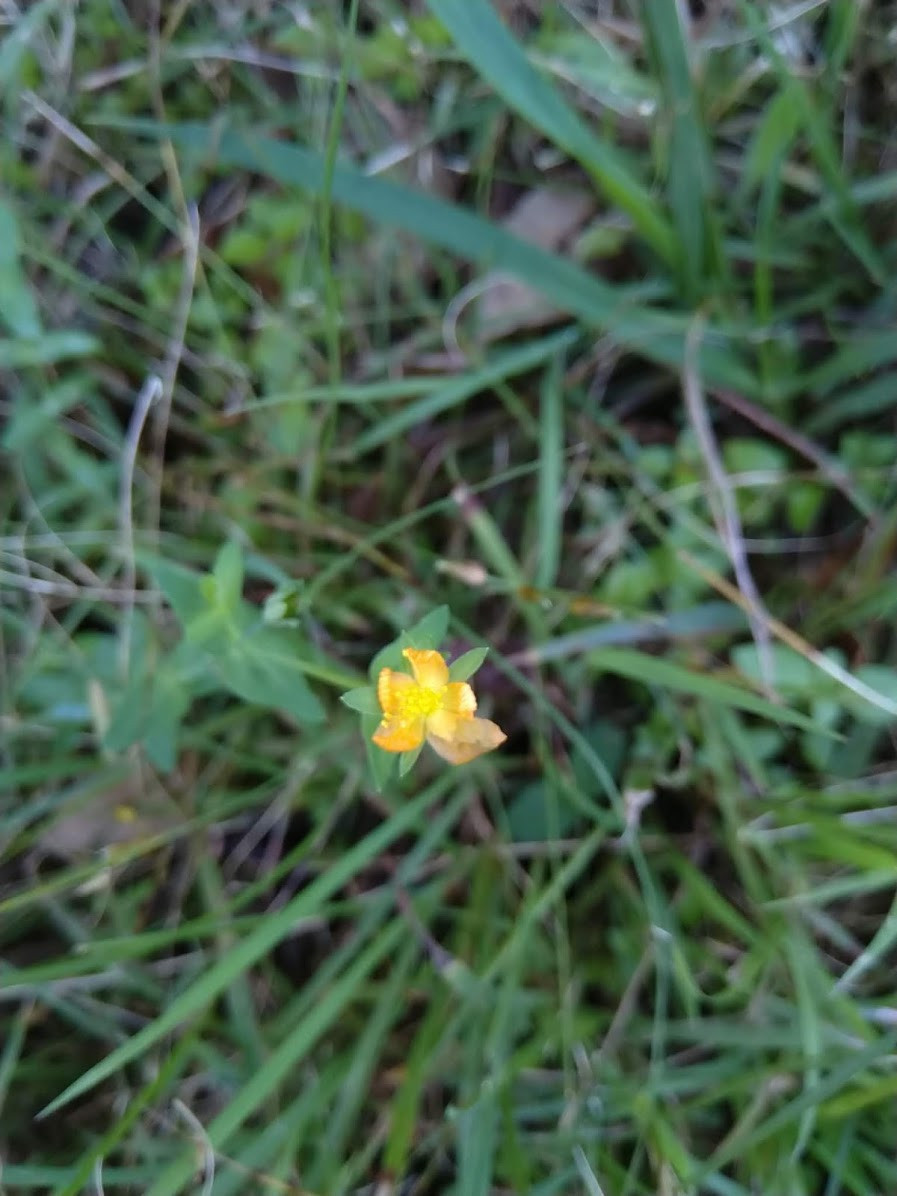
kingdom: Plantae
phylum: Tracheophyta
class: Magnoliopsida
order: Malpighiales
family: Hypericaceae
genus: Hypericum
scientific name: Hypericum gramineum
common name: Grassy st. johnswort
